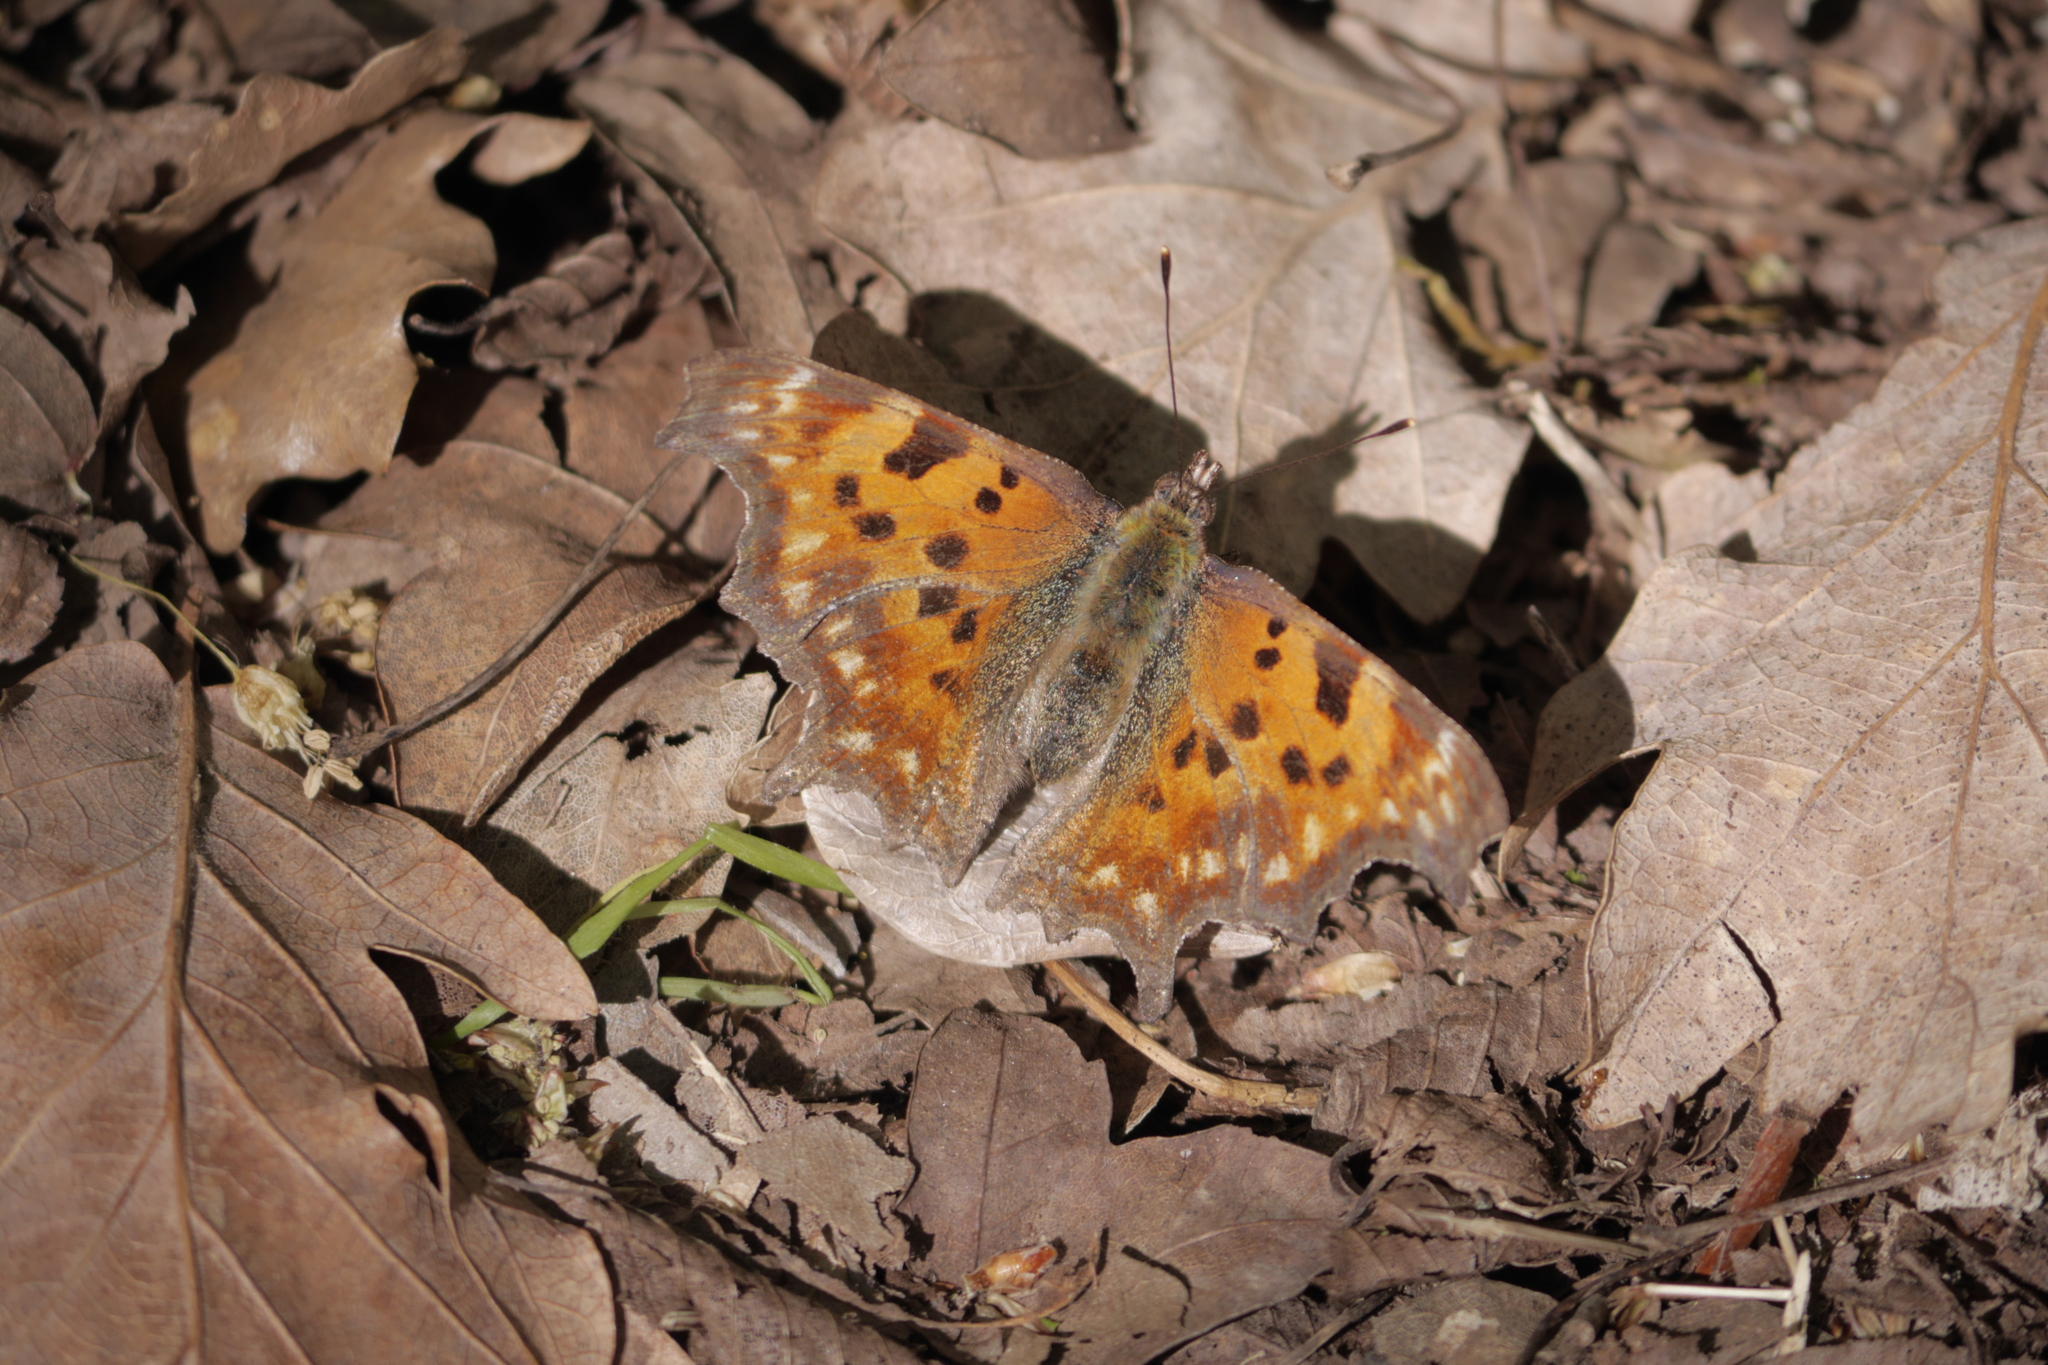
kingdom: Animalia
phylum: Arthropoda
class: Insecta
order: Lepidoptera
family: Nymphalidae
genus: Polygonia
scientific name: Polygonia c-album
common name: Comma
